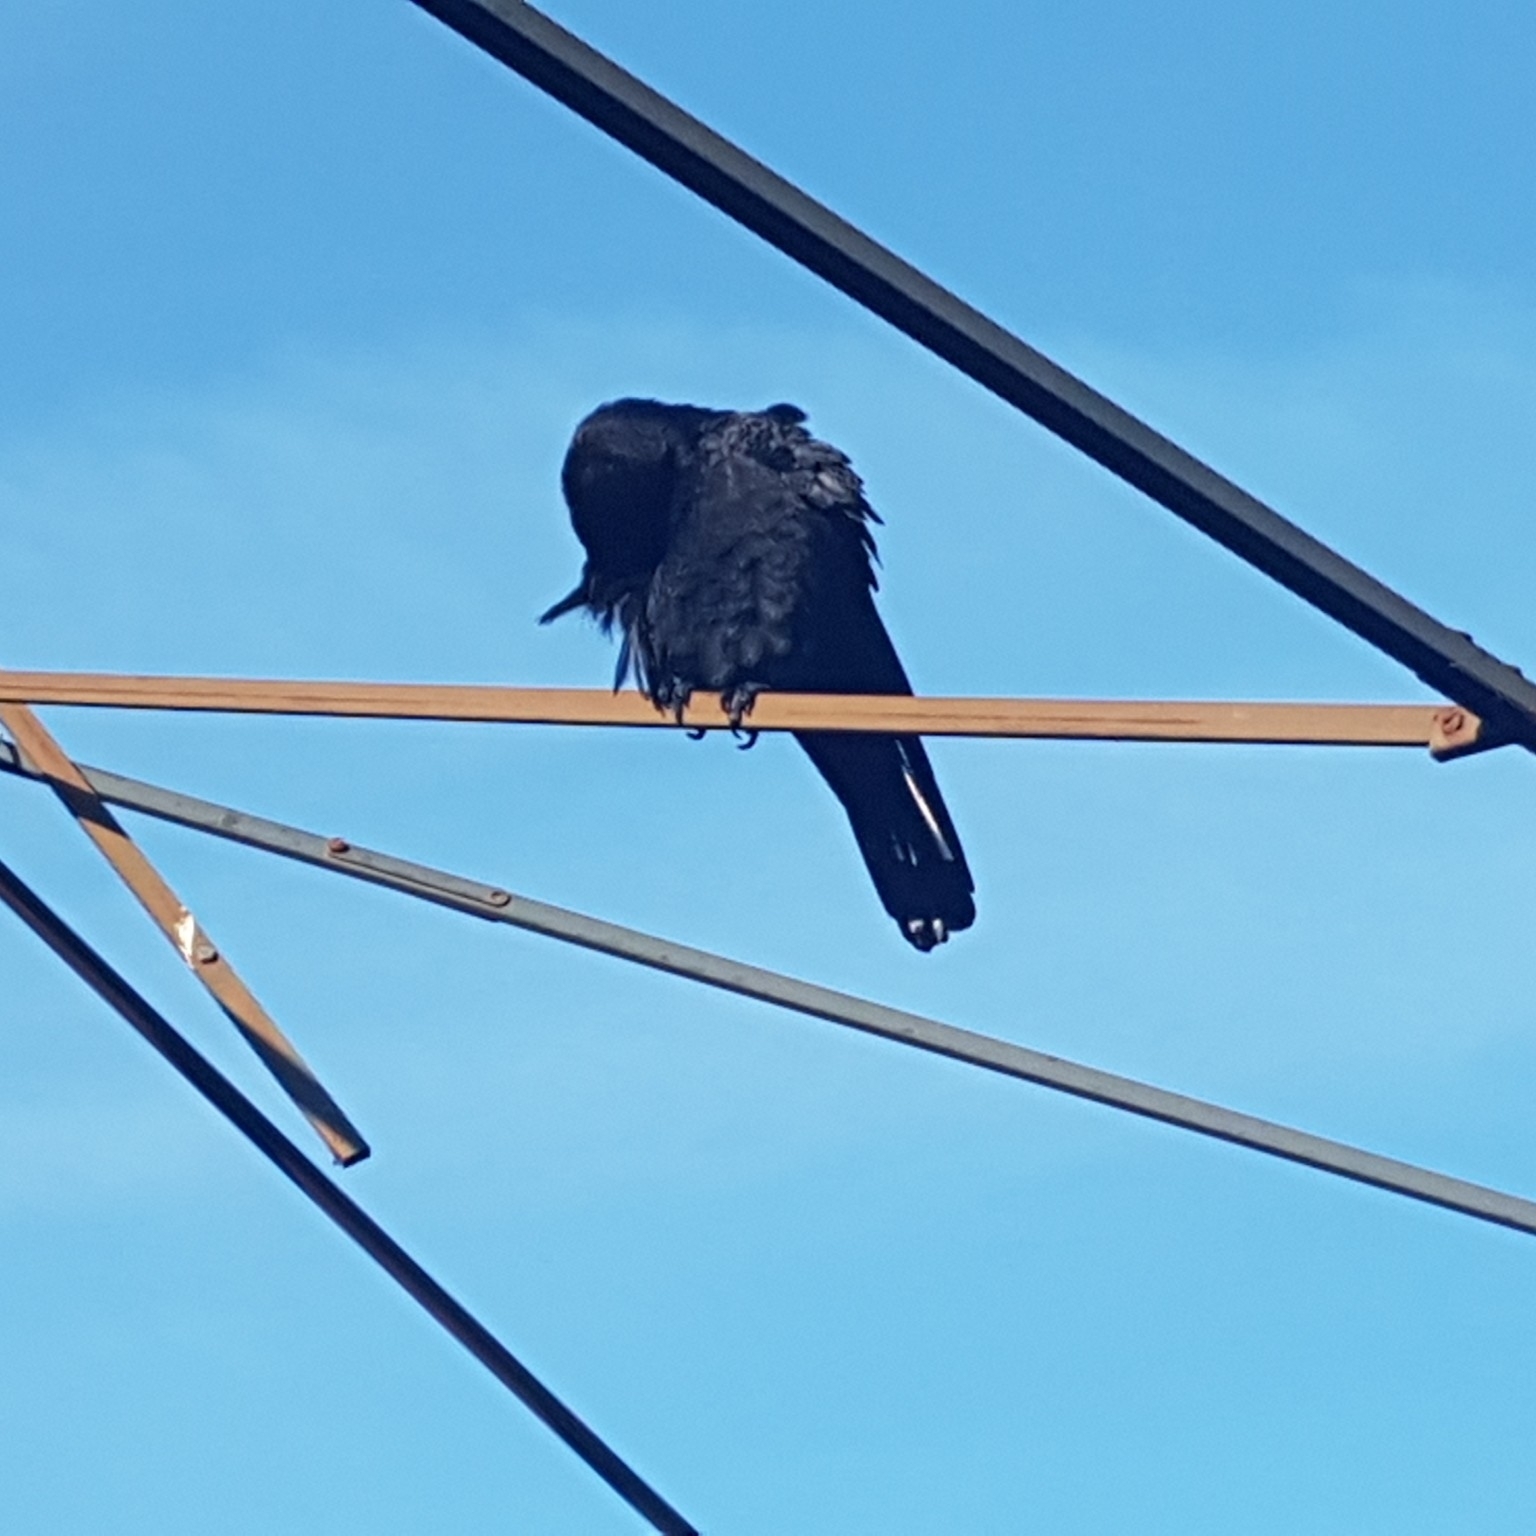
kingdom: Animalia
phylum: Chordata
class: Aves
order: Passeriformes
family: Corvidae
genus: Corvus
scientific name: Corvus brachyrhynchos
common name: American crow
